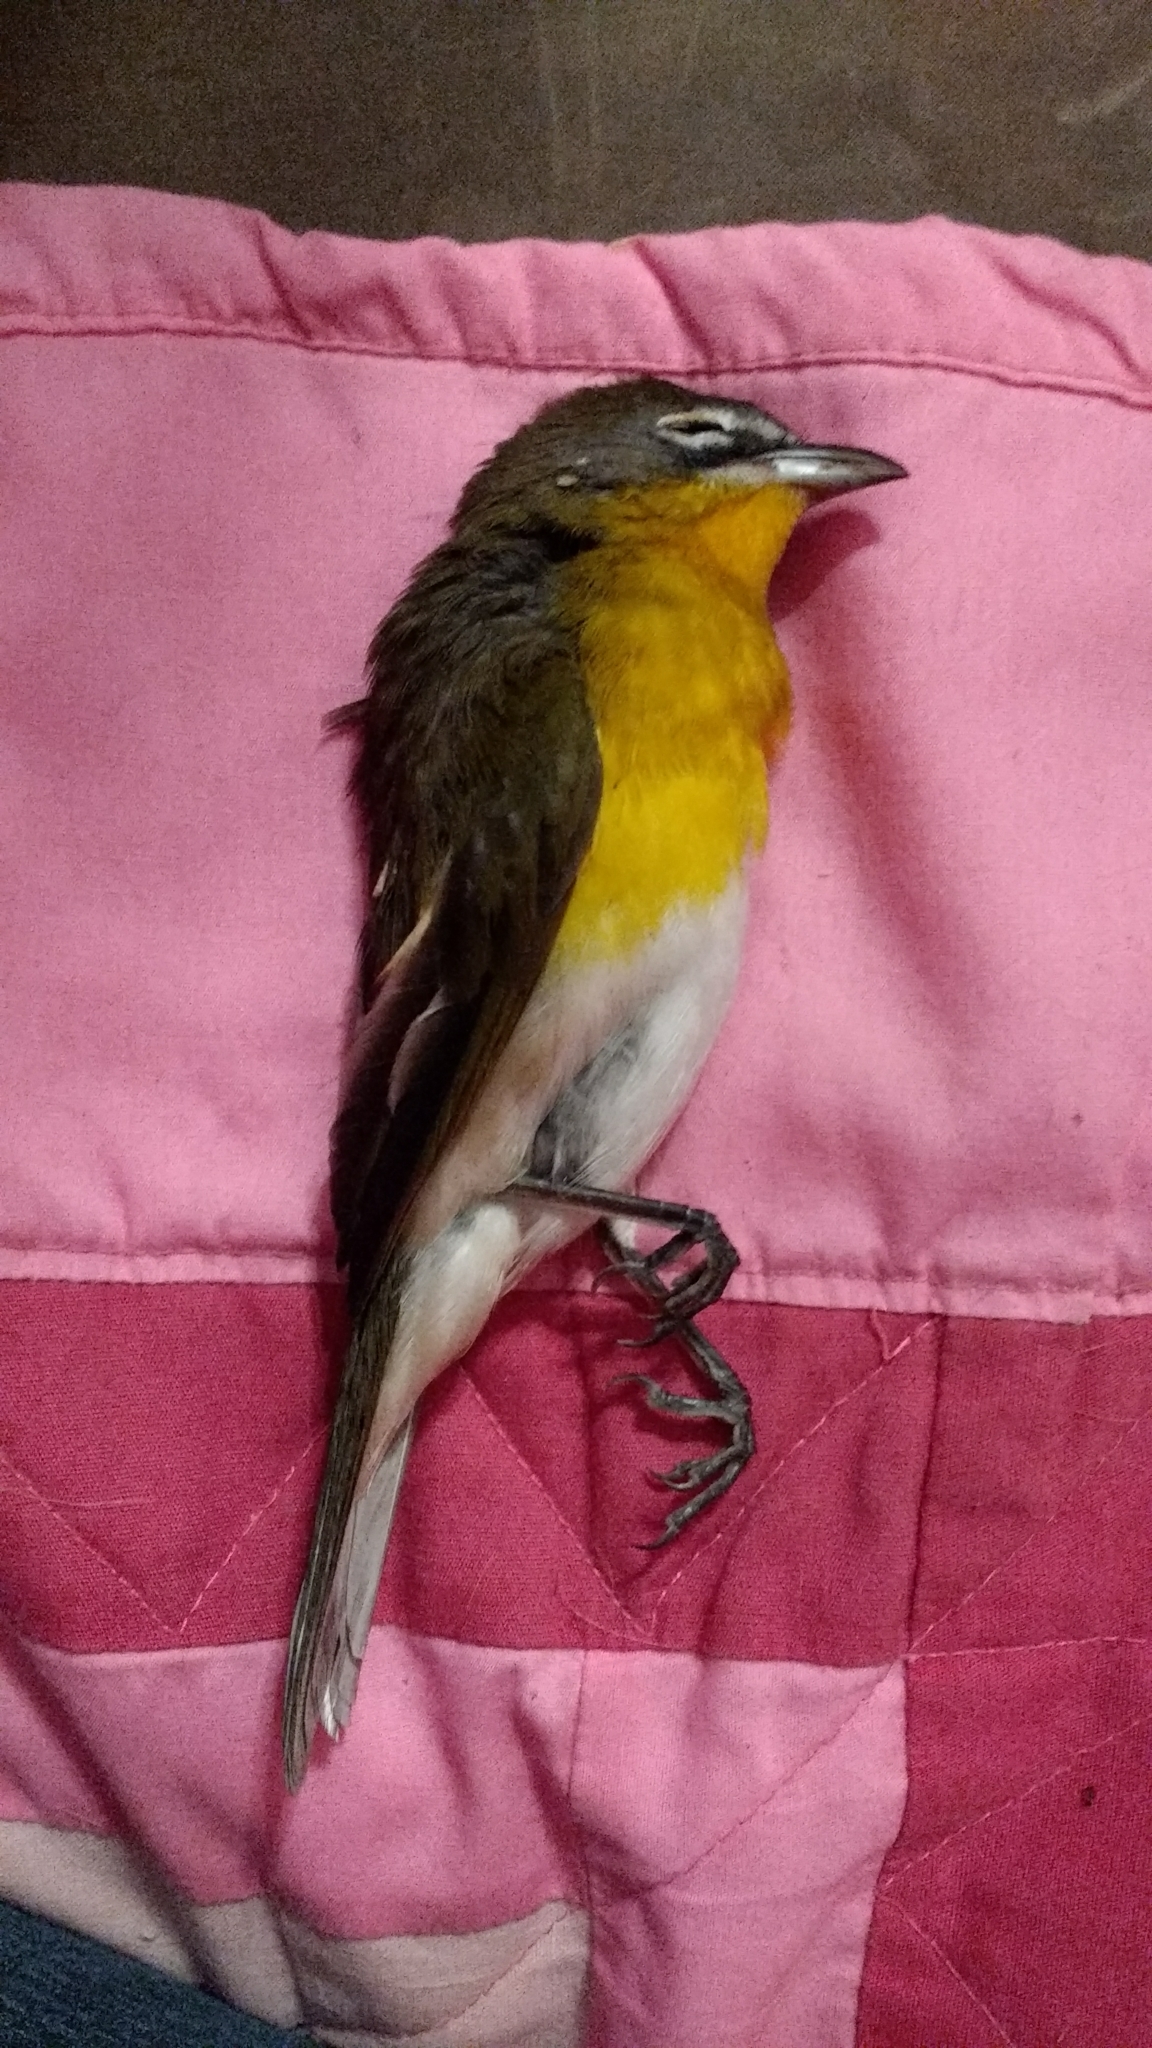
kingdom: Animalia
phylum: Chordata
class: Aves
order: Passeriformes
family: Parulidae
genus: Icteria
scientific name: Icteria virens
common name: Yellow-breasted chat
